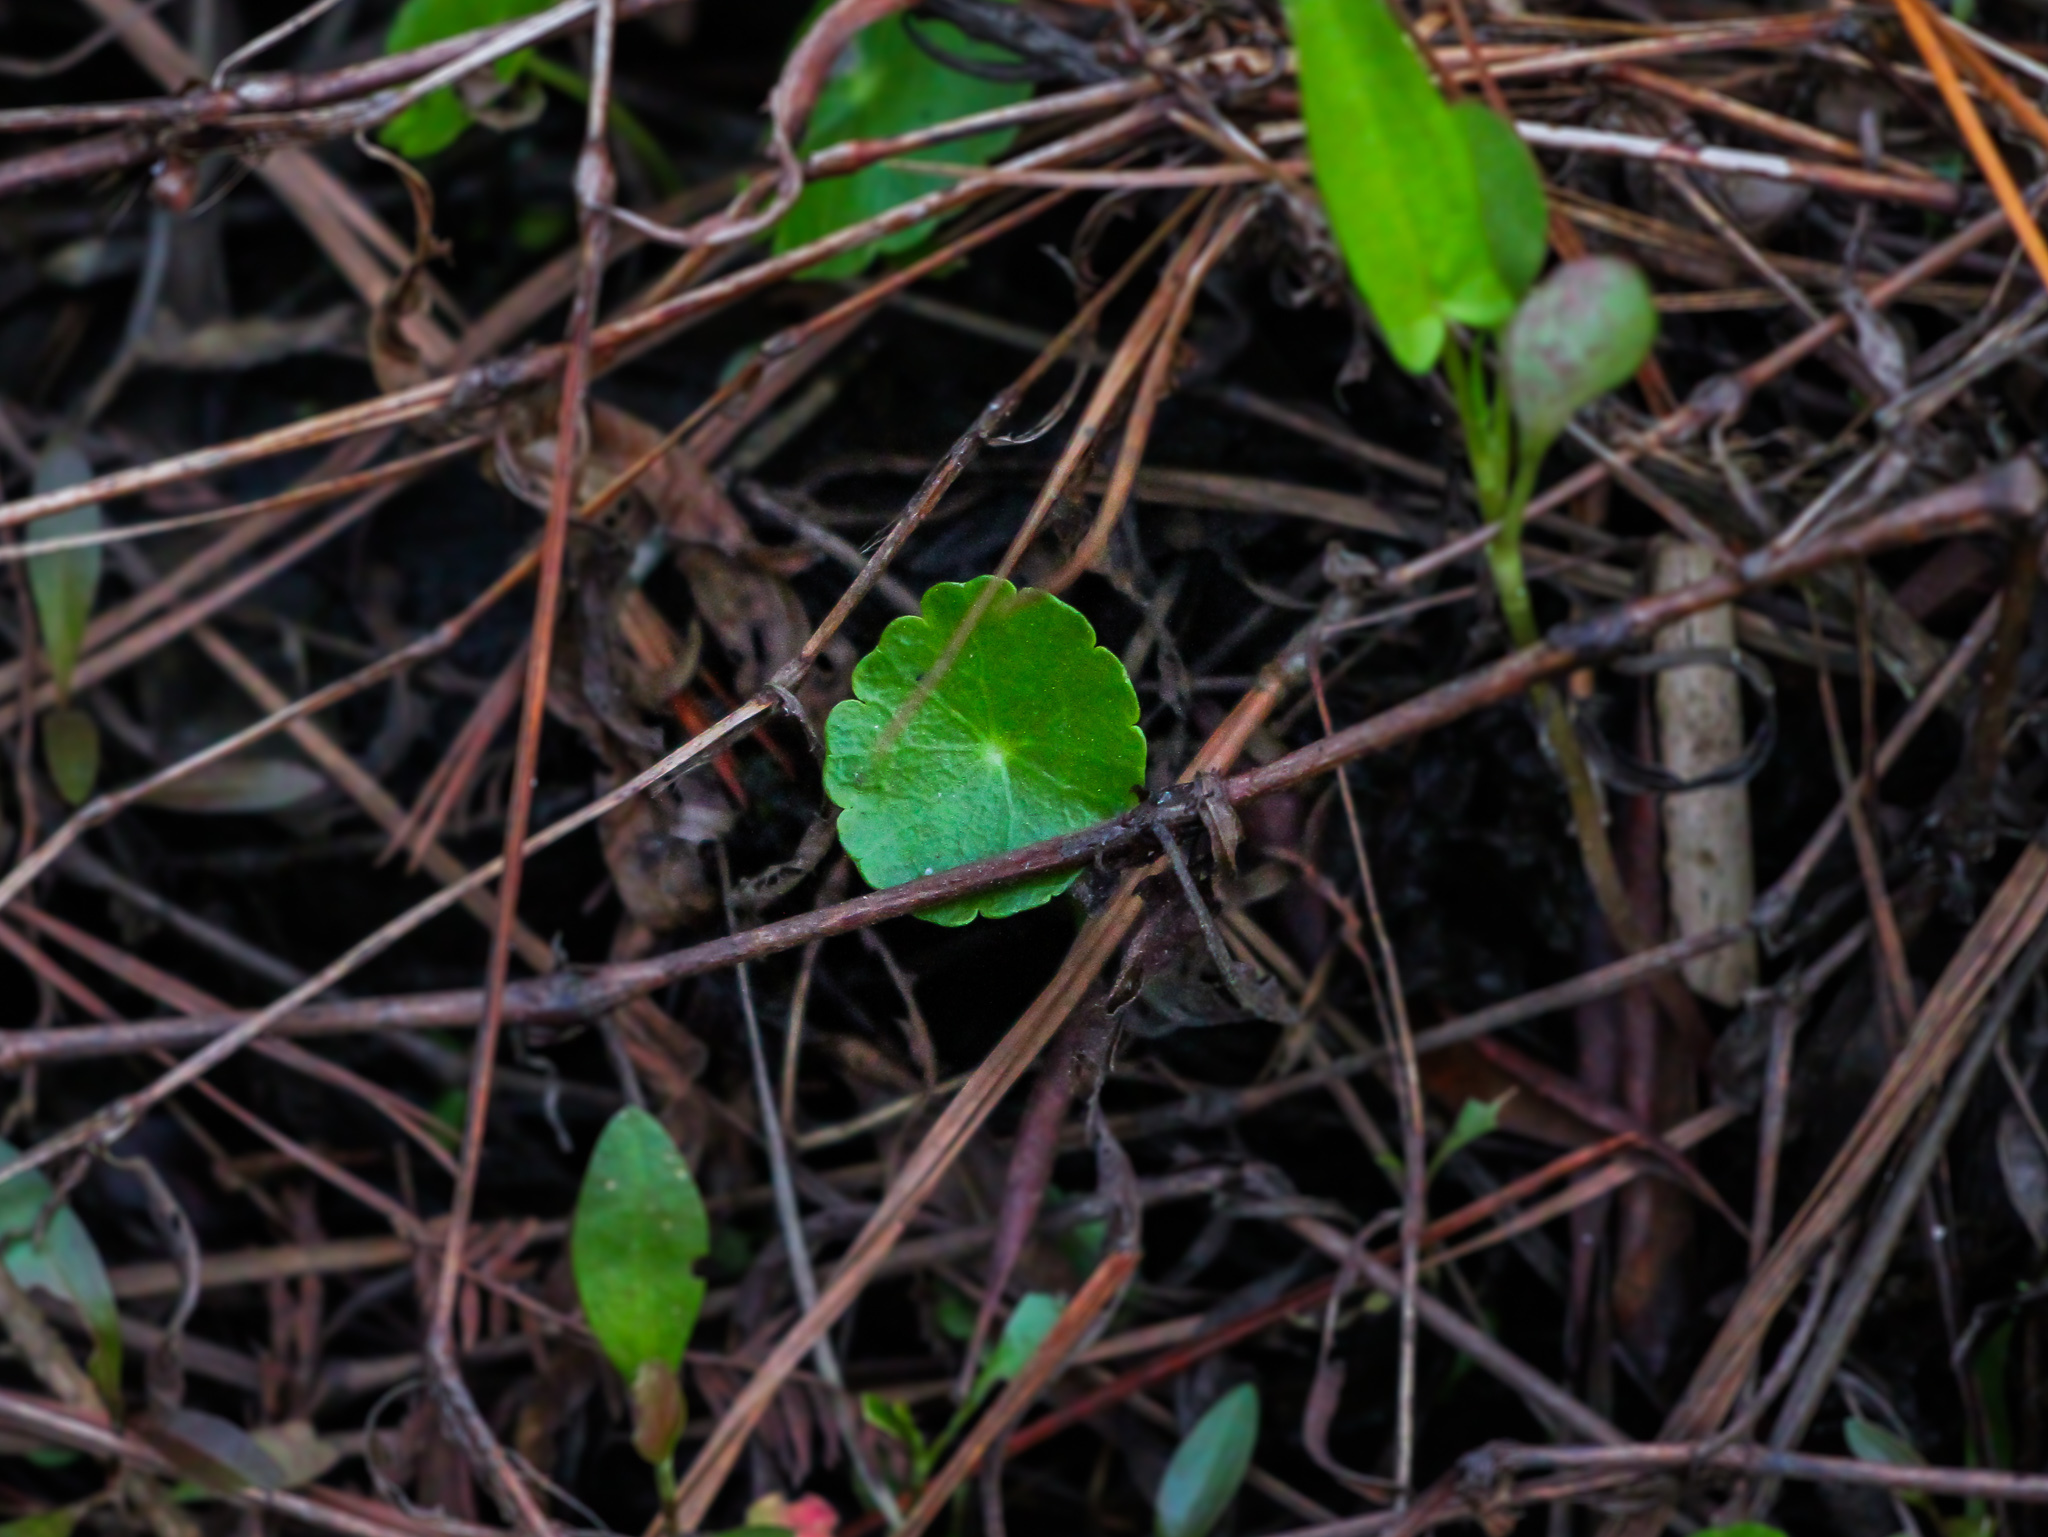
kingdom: Plantae
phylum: Tracheophyta
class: Magnoliopsida
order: Apiales
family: Araliaceae
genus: Hydrocotyle
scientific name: Hydrocotyle bonariensis
